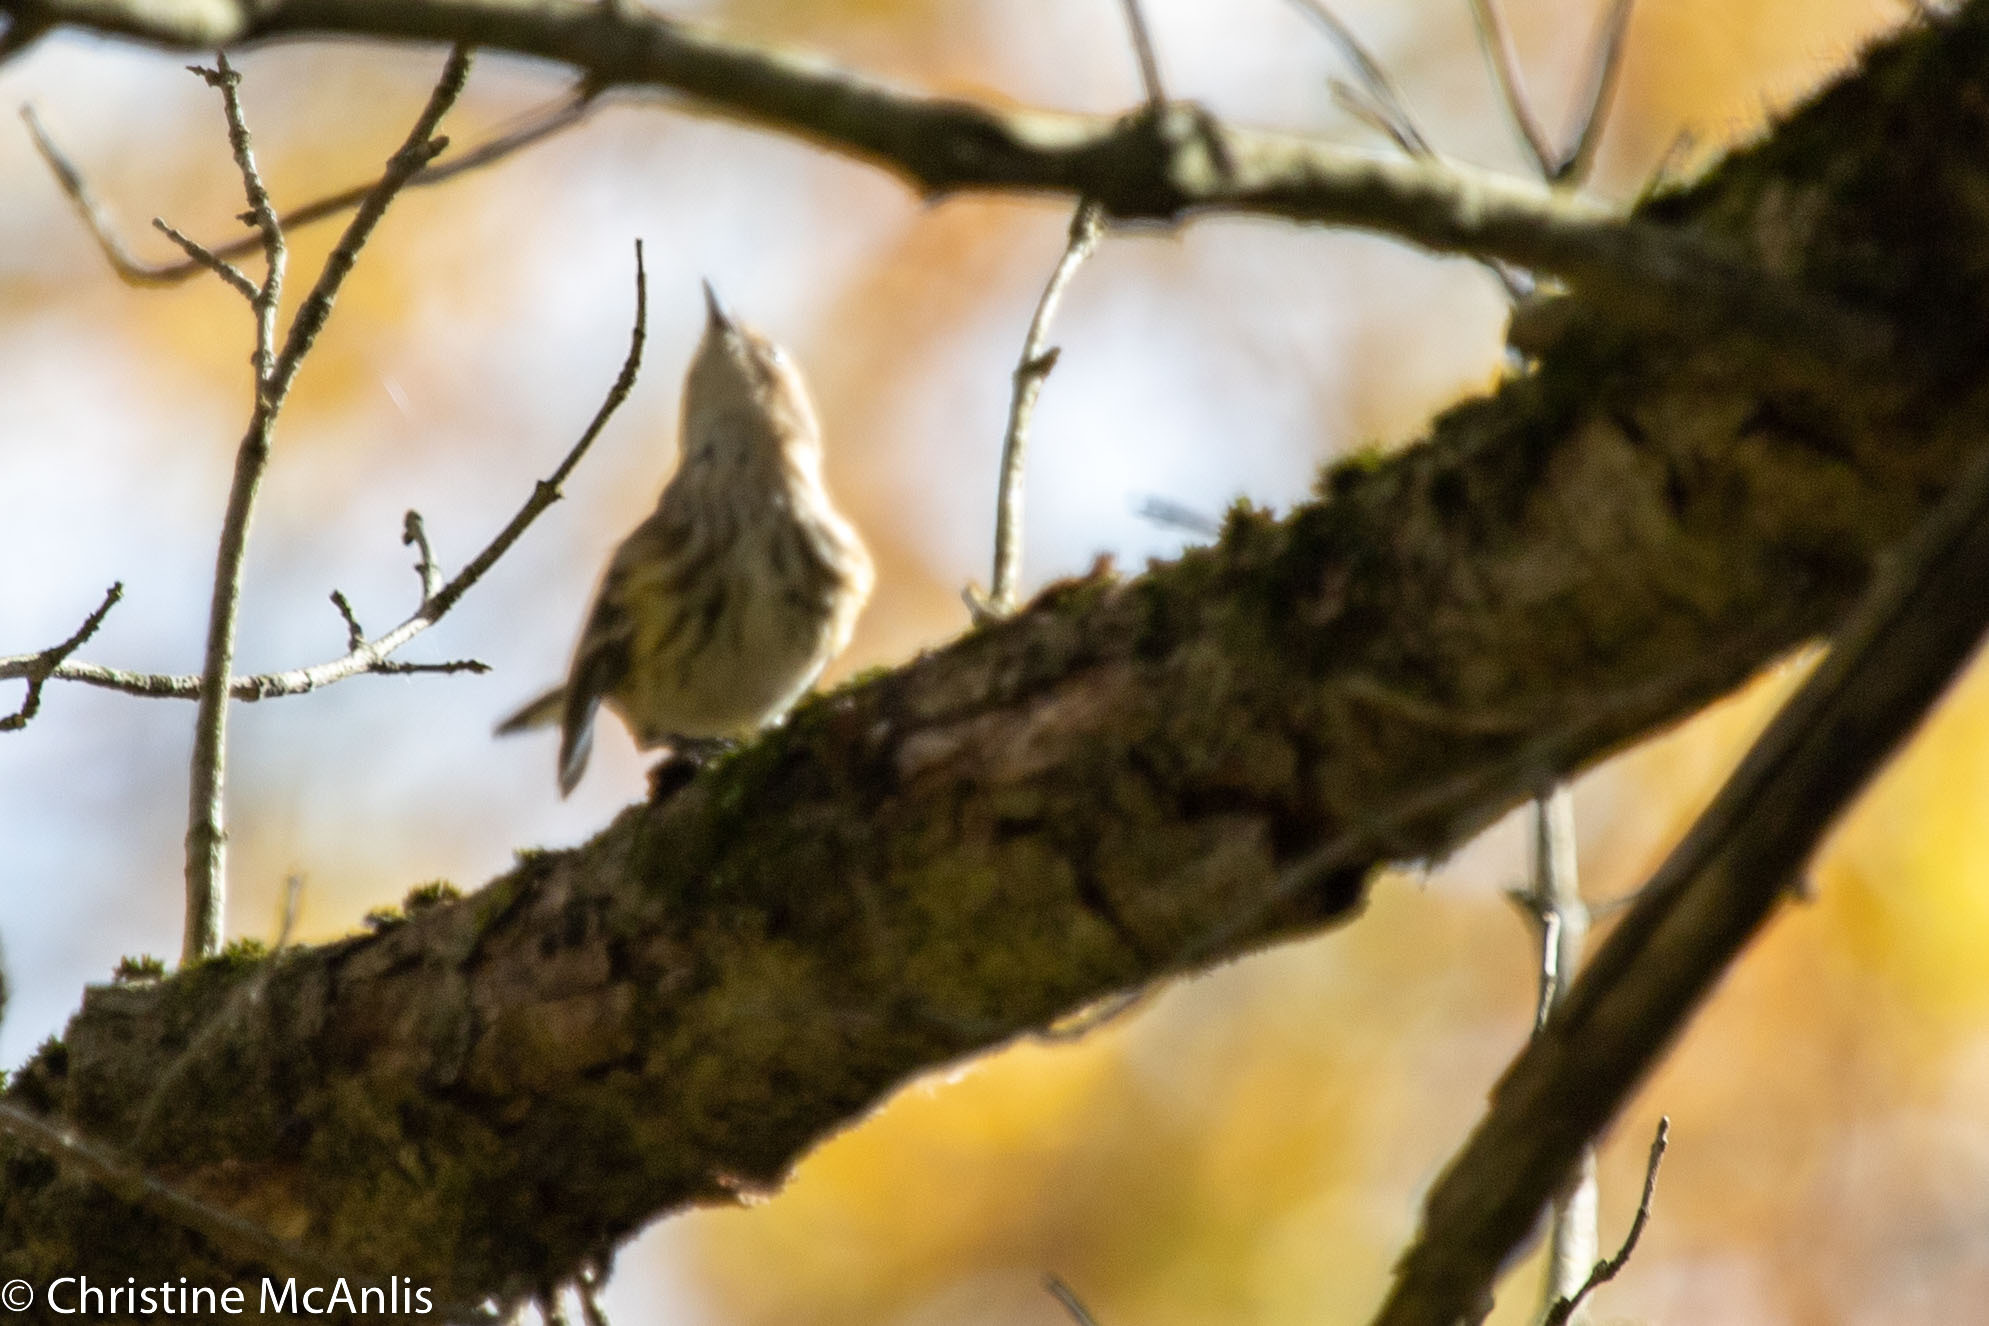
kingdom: Animalia
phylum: Chordata
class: Aves
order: Passeriformes
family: Parulidae
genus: Setophaga
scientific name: Setophaga coronata
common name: Myrtle warbler
